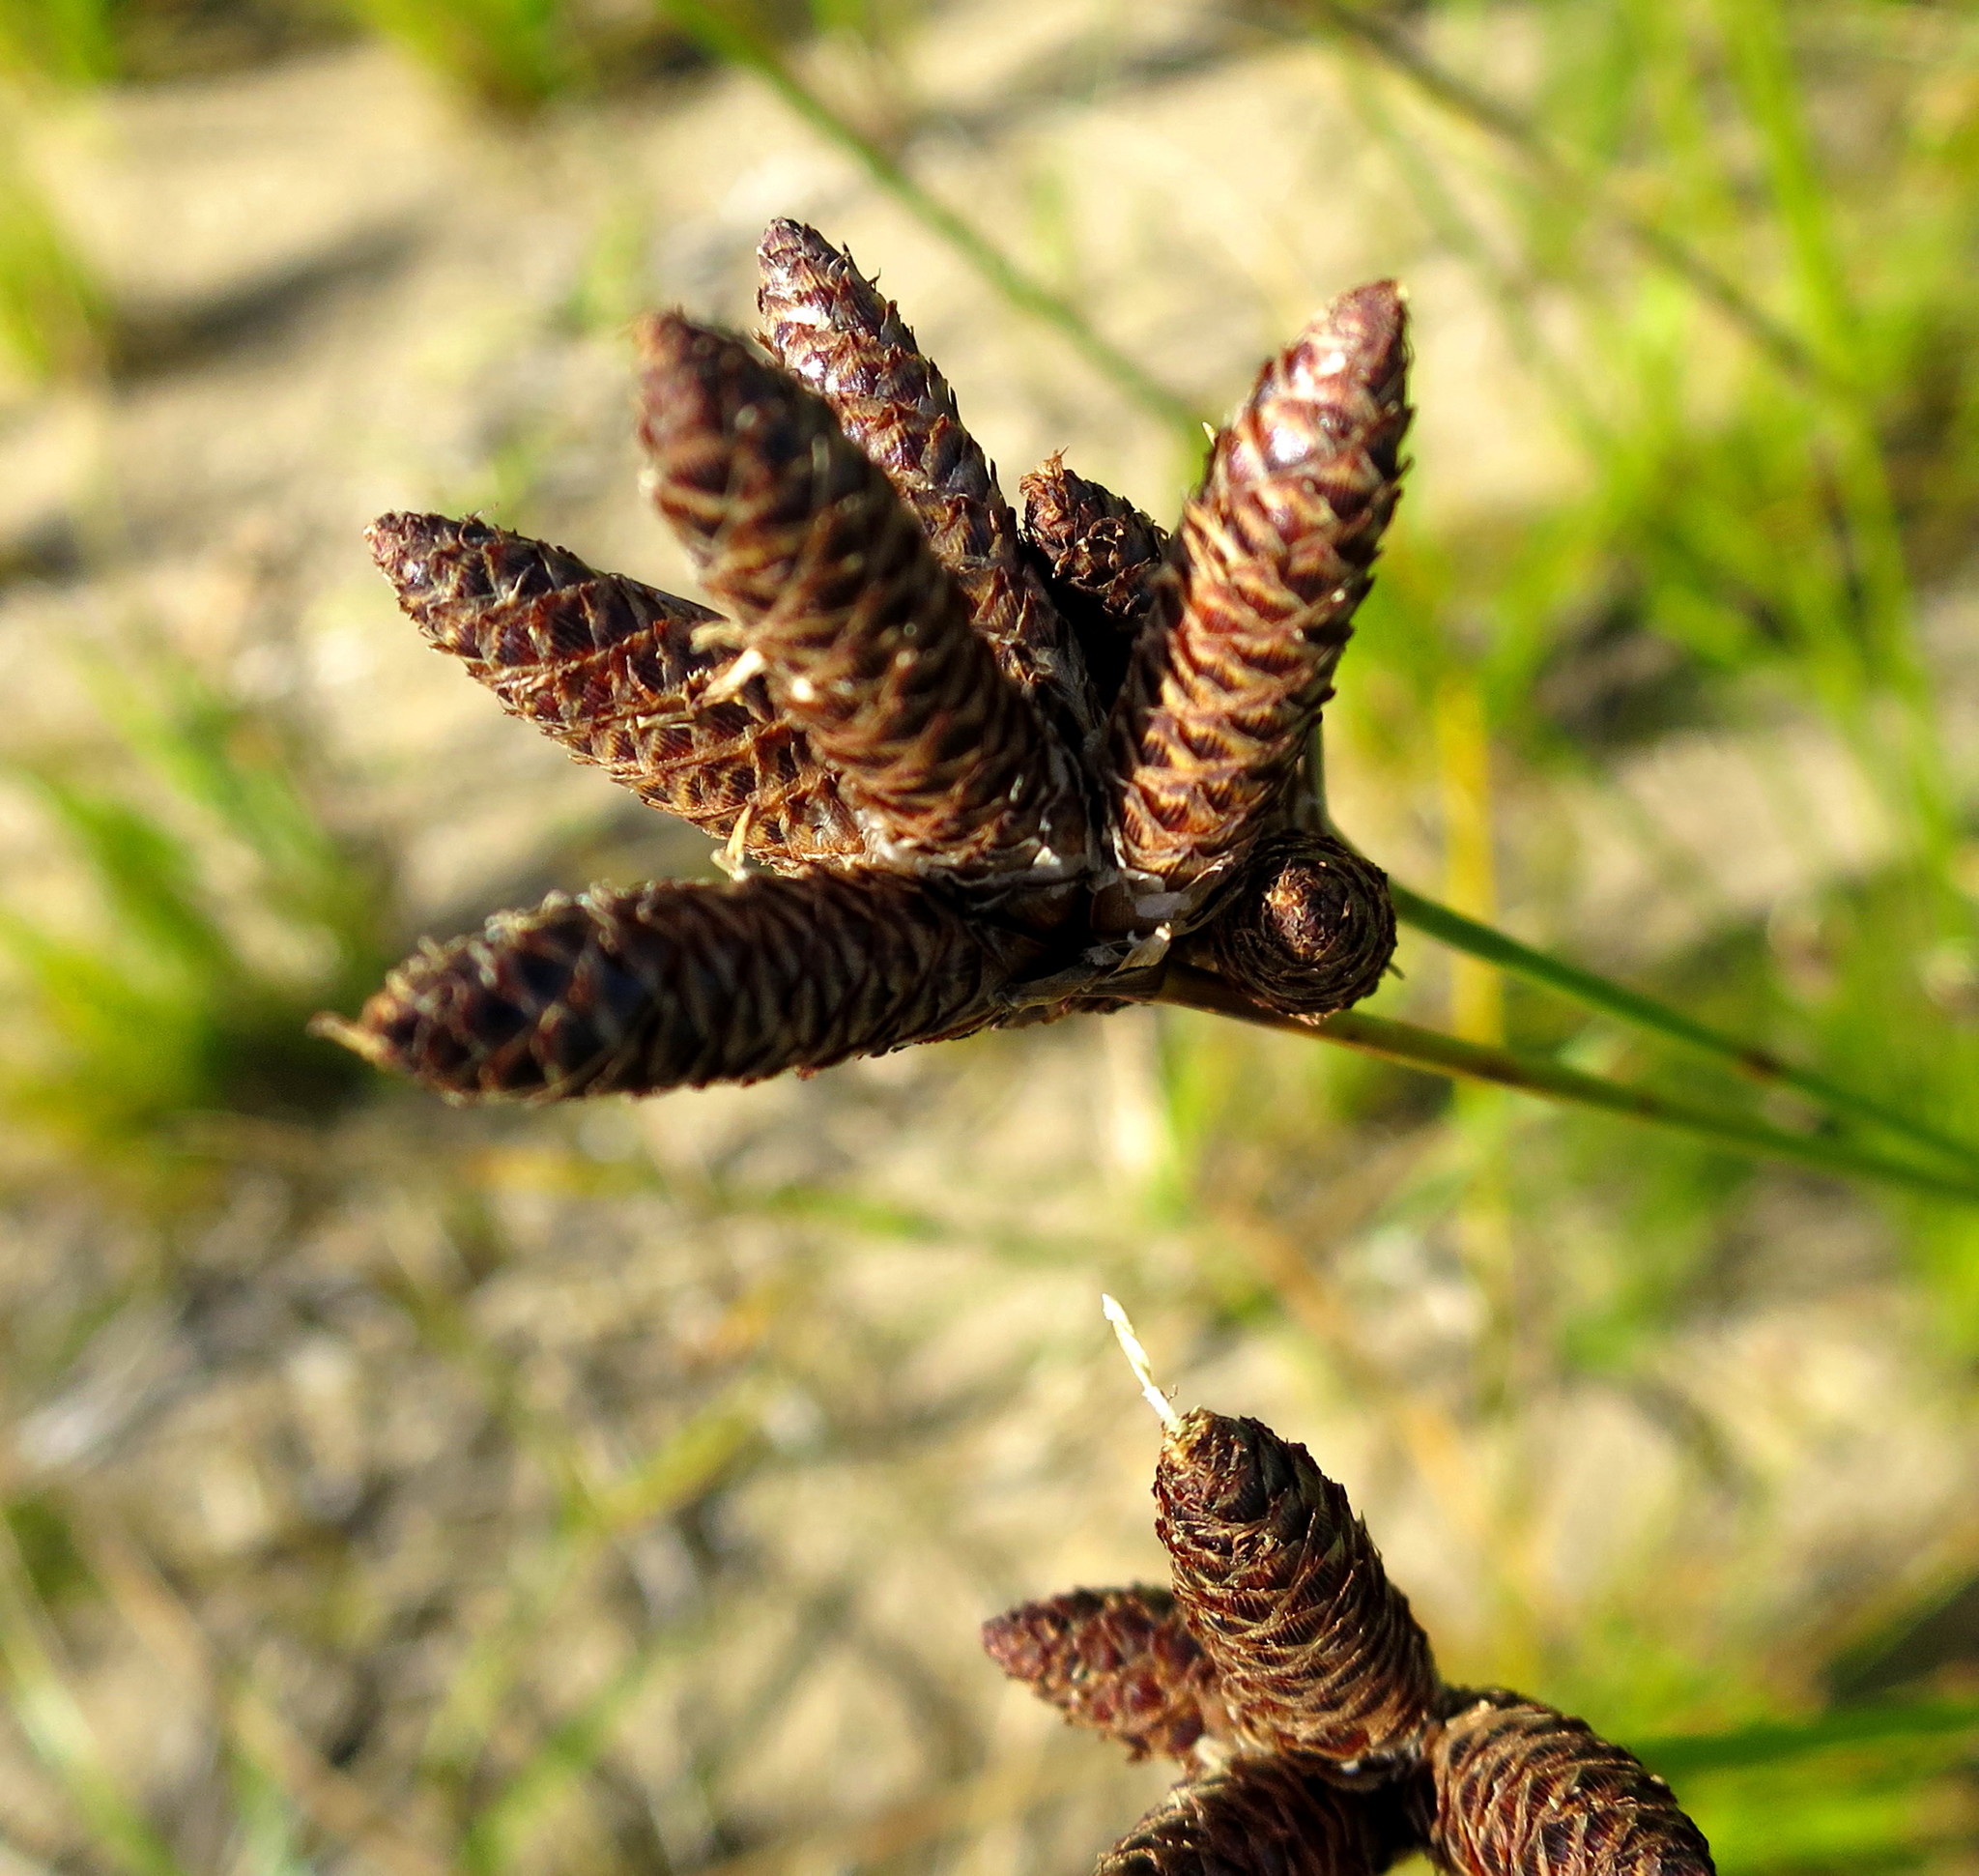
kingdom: Plantae
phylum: Tracheophyta
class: Liliopsida
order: Poales
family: Cyperaceae
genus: Hellmuthia
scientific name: Hellmuthia membranacea
